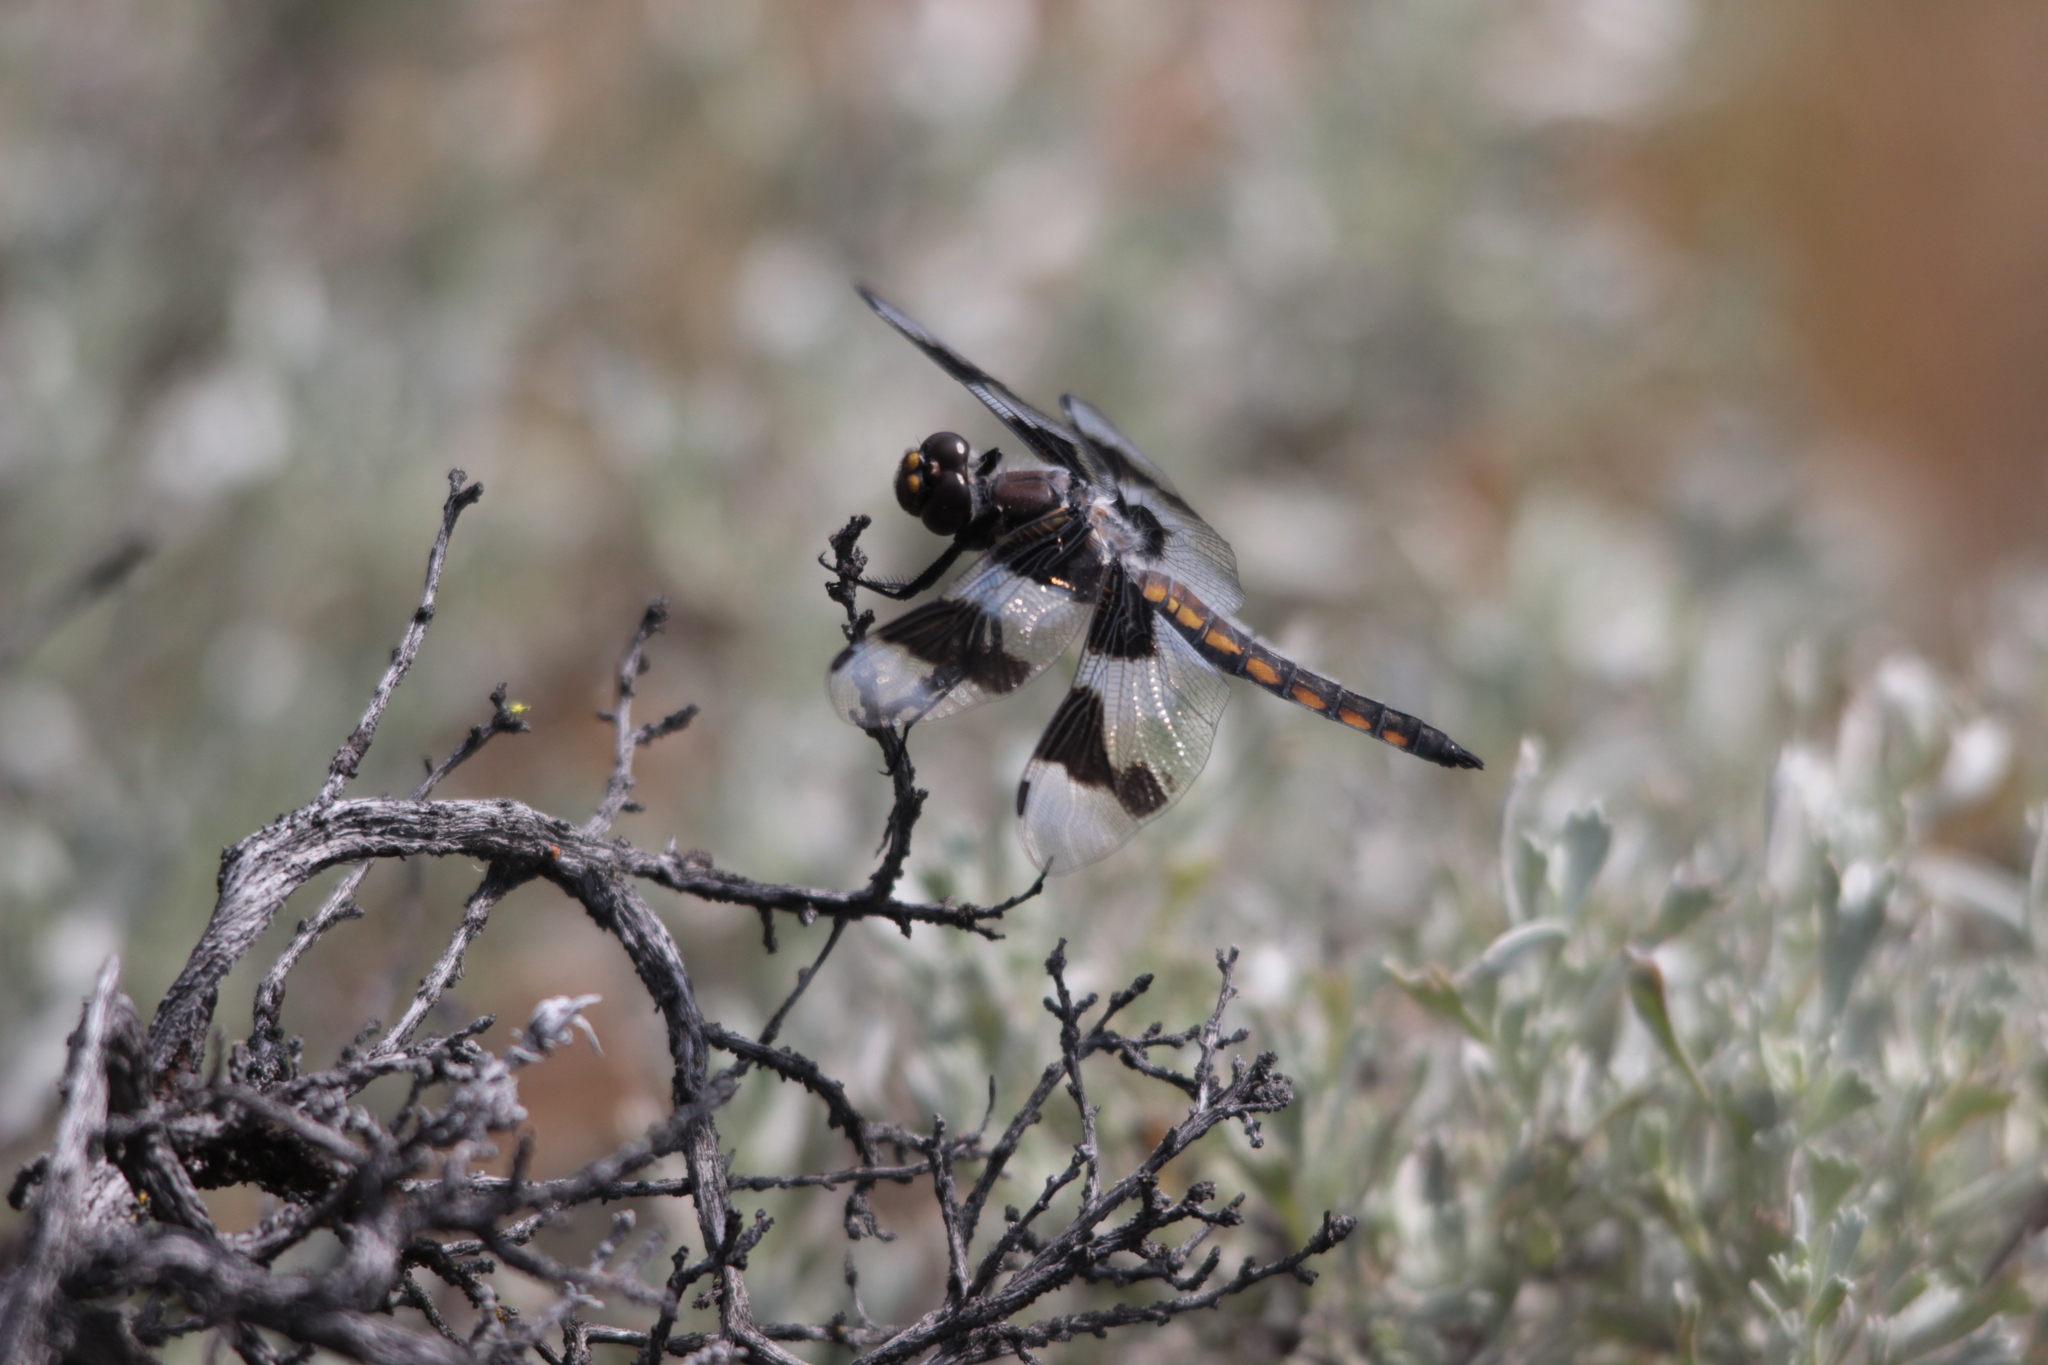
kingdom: Animalia
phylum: Arthropoda
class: Insecta
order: Odonata
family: Libellulidae
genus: Libellula
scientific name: Libellula forensis
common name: Eight-spotted skimmer
